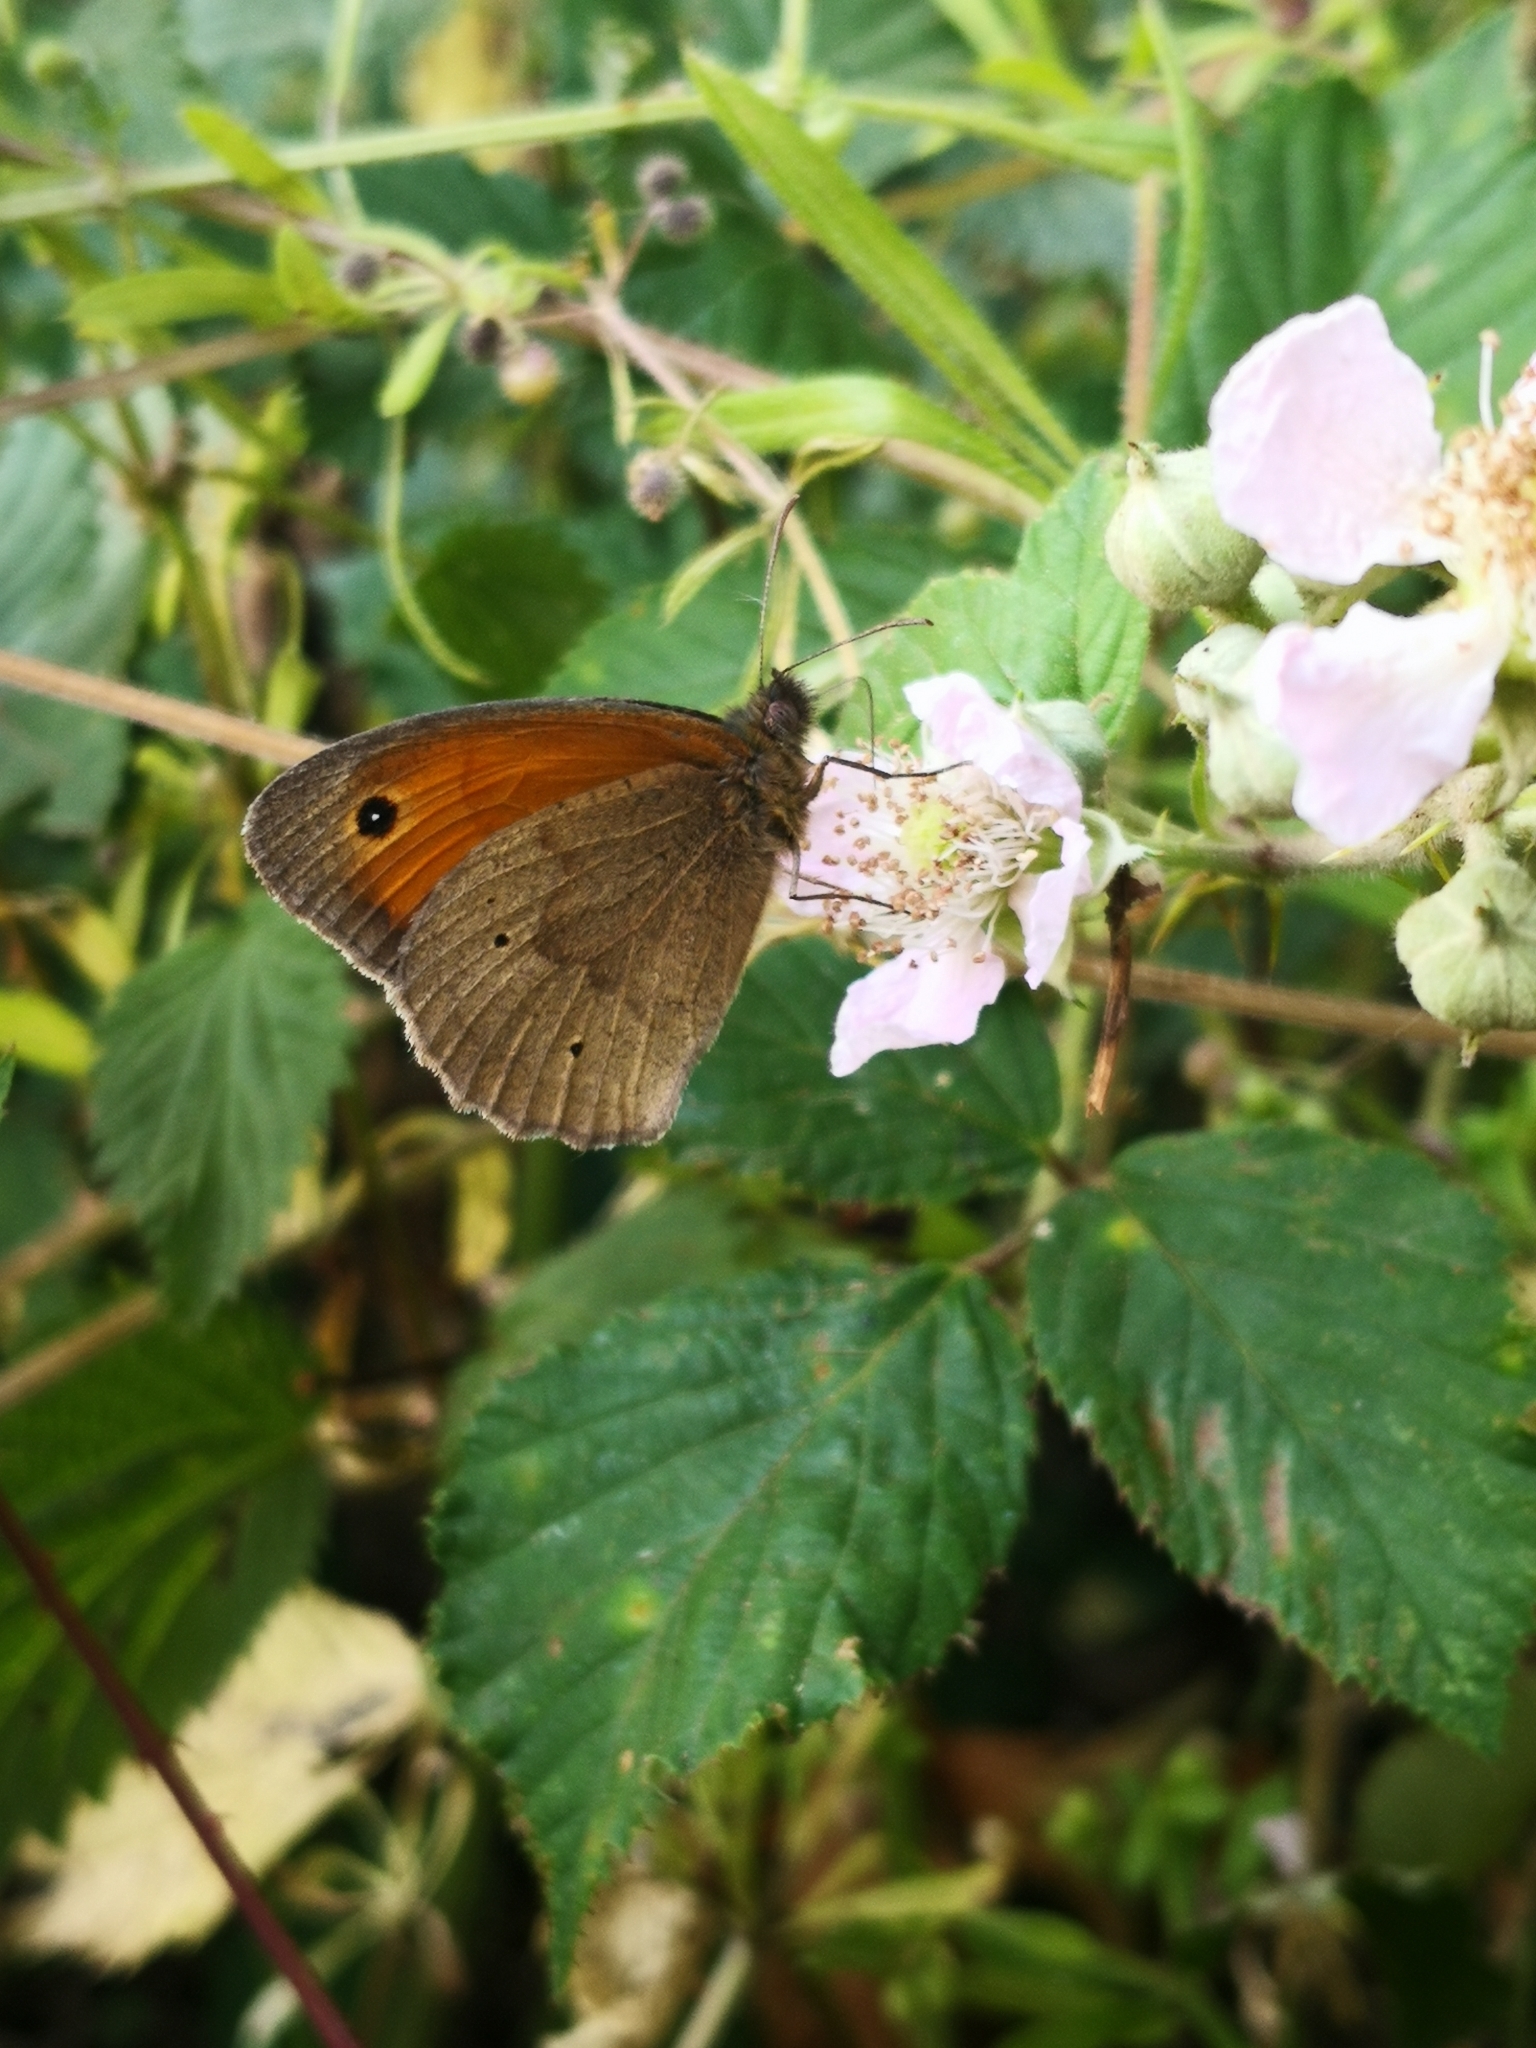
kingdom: Animalia
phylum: Arthropoda
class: Insecta
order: Lepidoptera
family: Nymphalidae
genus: Maniola
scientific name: Maniola jurtina
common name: Meadow brown
